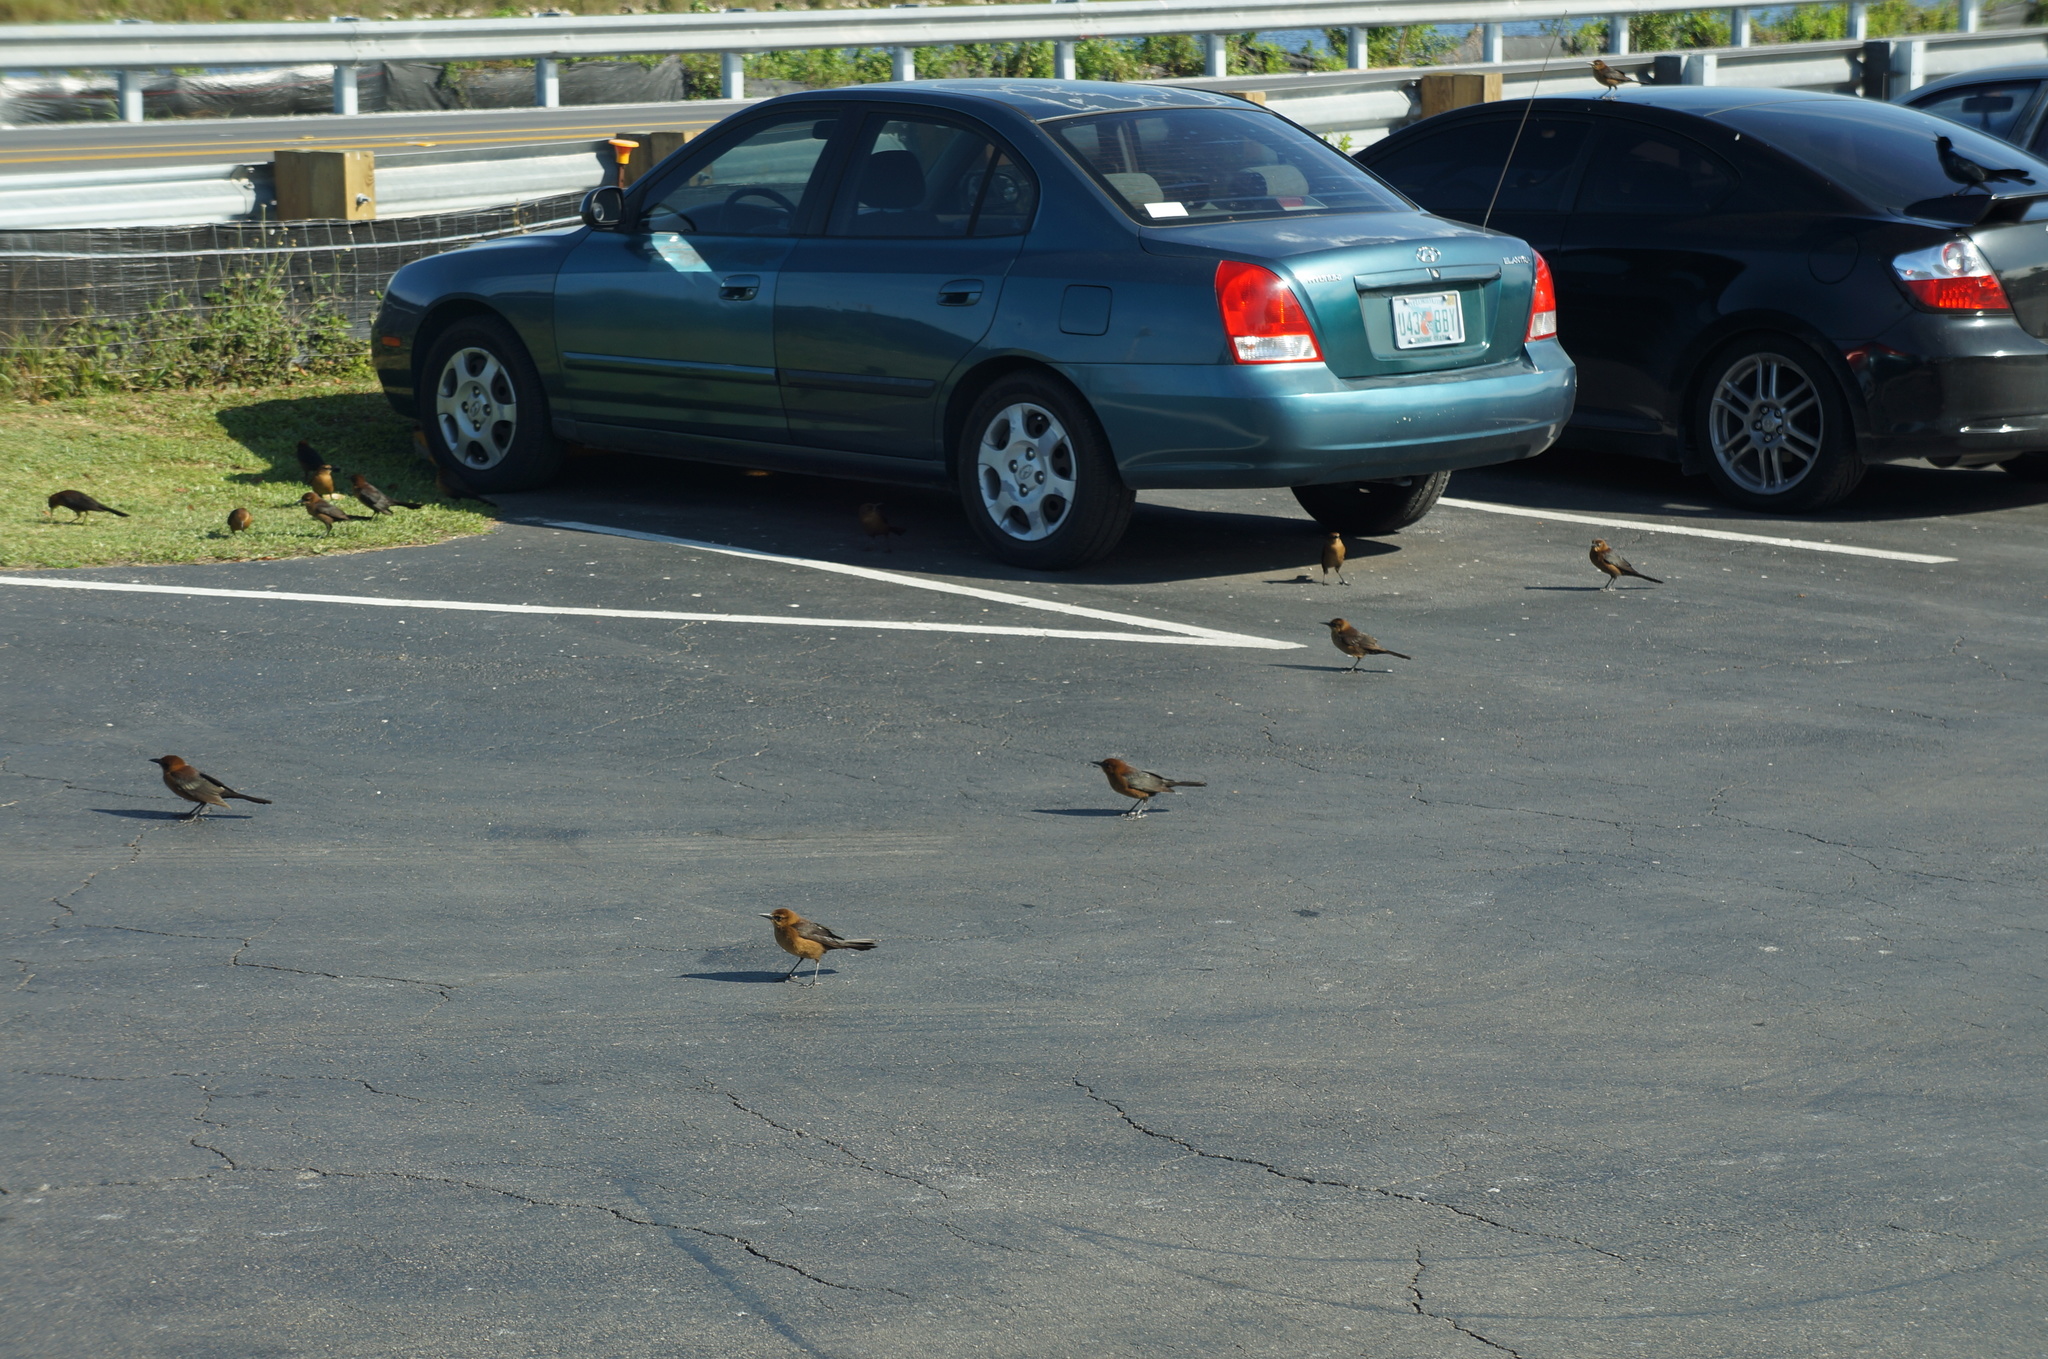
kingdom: Animalia
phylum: Chordata
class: Aves
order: Passeriformes
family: Icteridae
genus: Quiscalus
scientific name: Quiscalus major
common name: Boat-tailed grackle
